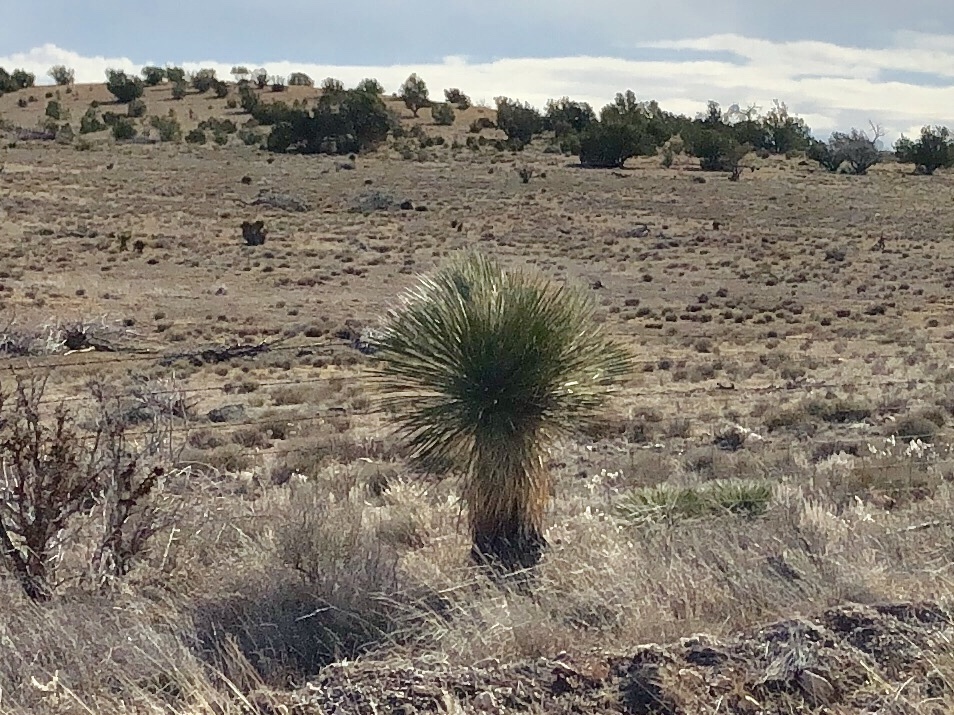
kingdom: Plantae
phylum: Tracheophyta
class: Liliopsida
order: Asparagales
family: Asparagaceae
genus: Yucca
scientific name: Yucca elata
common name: Palmella
